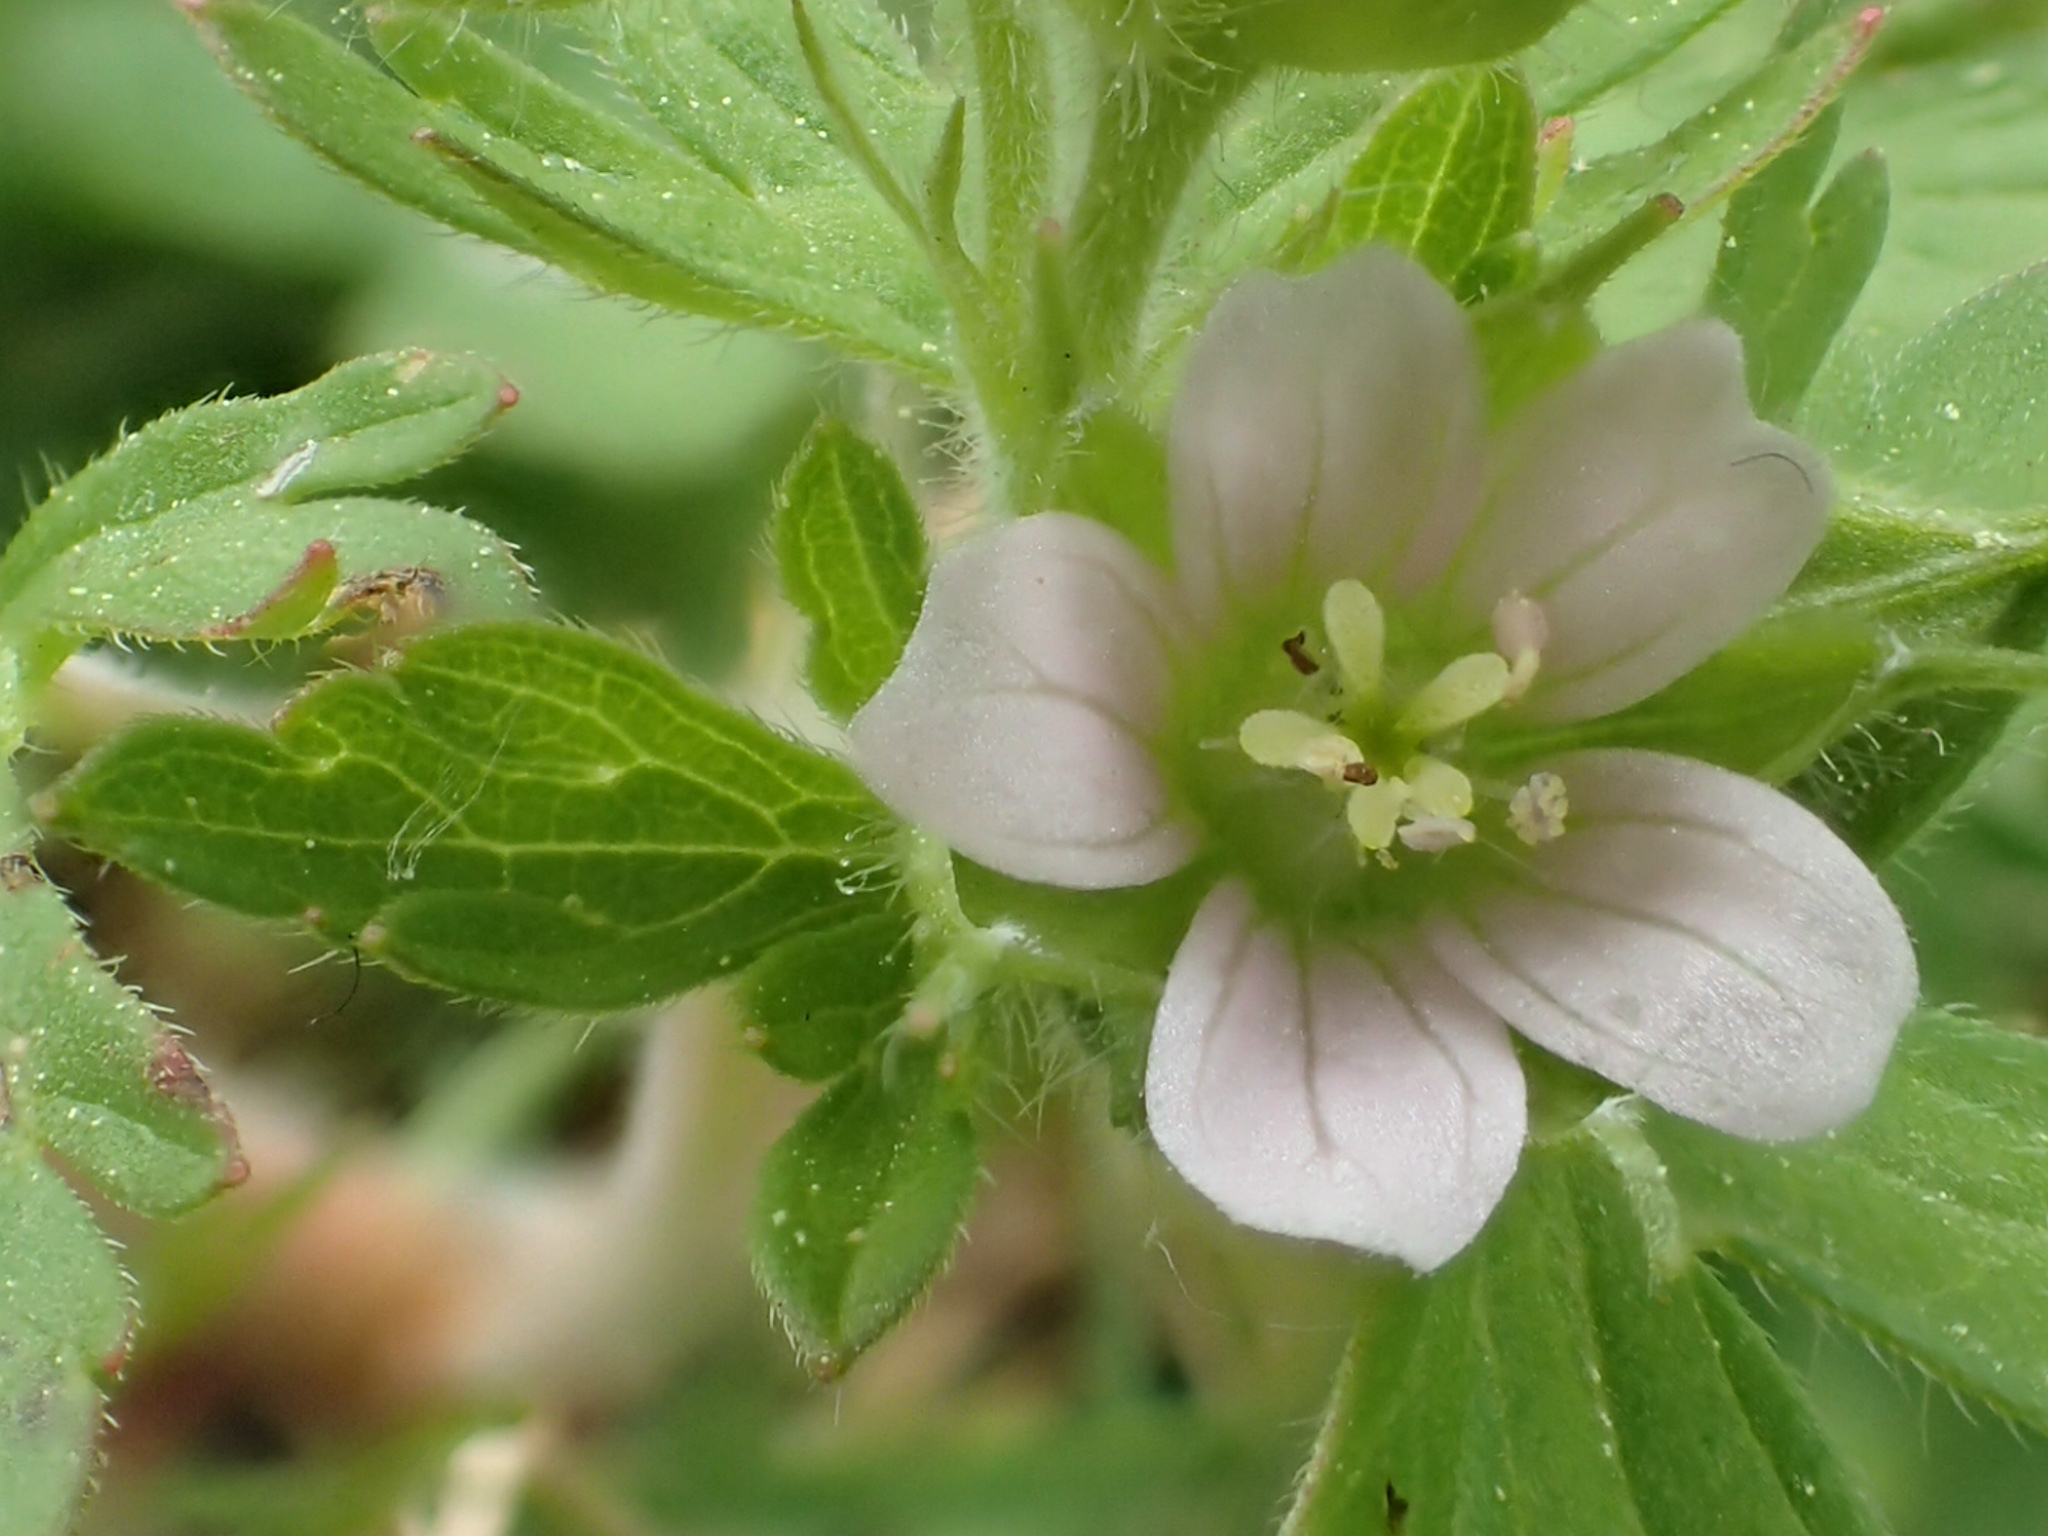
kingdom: Plantae
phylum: Tracheophyta
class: Magnoliopsida
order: Geraniales
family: Geraniaceae
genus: Geranium
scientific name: Geranium carolinianum
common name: Carolina crane's-bill
